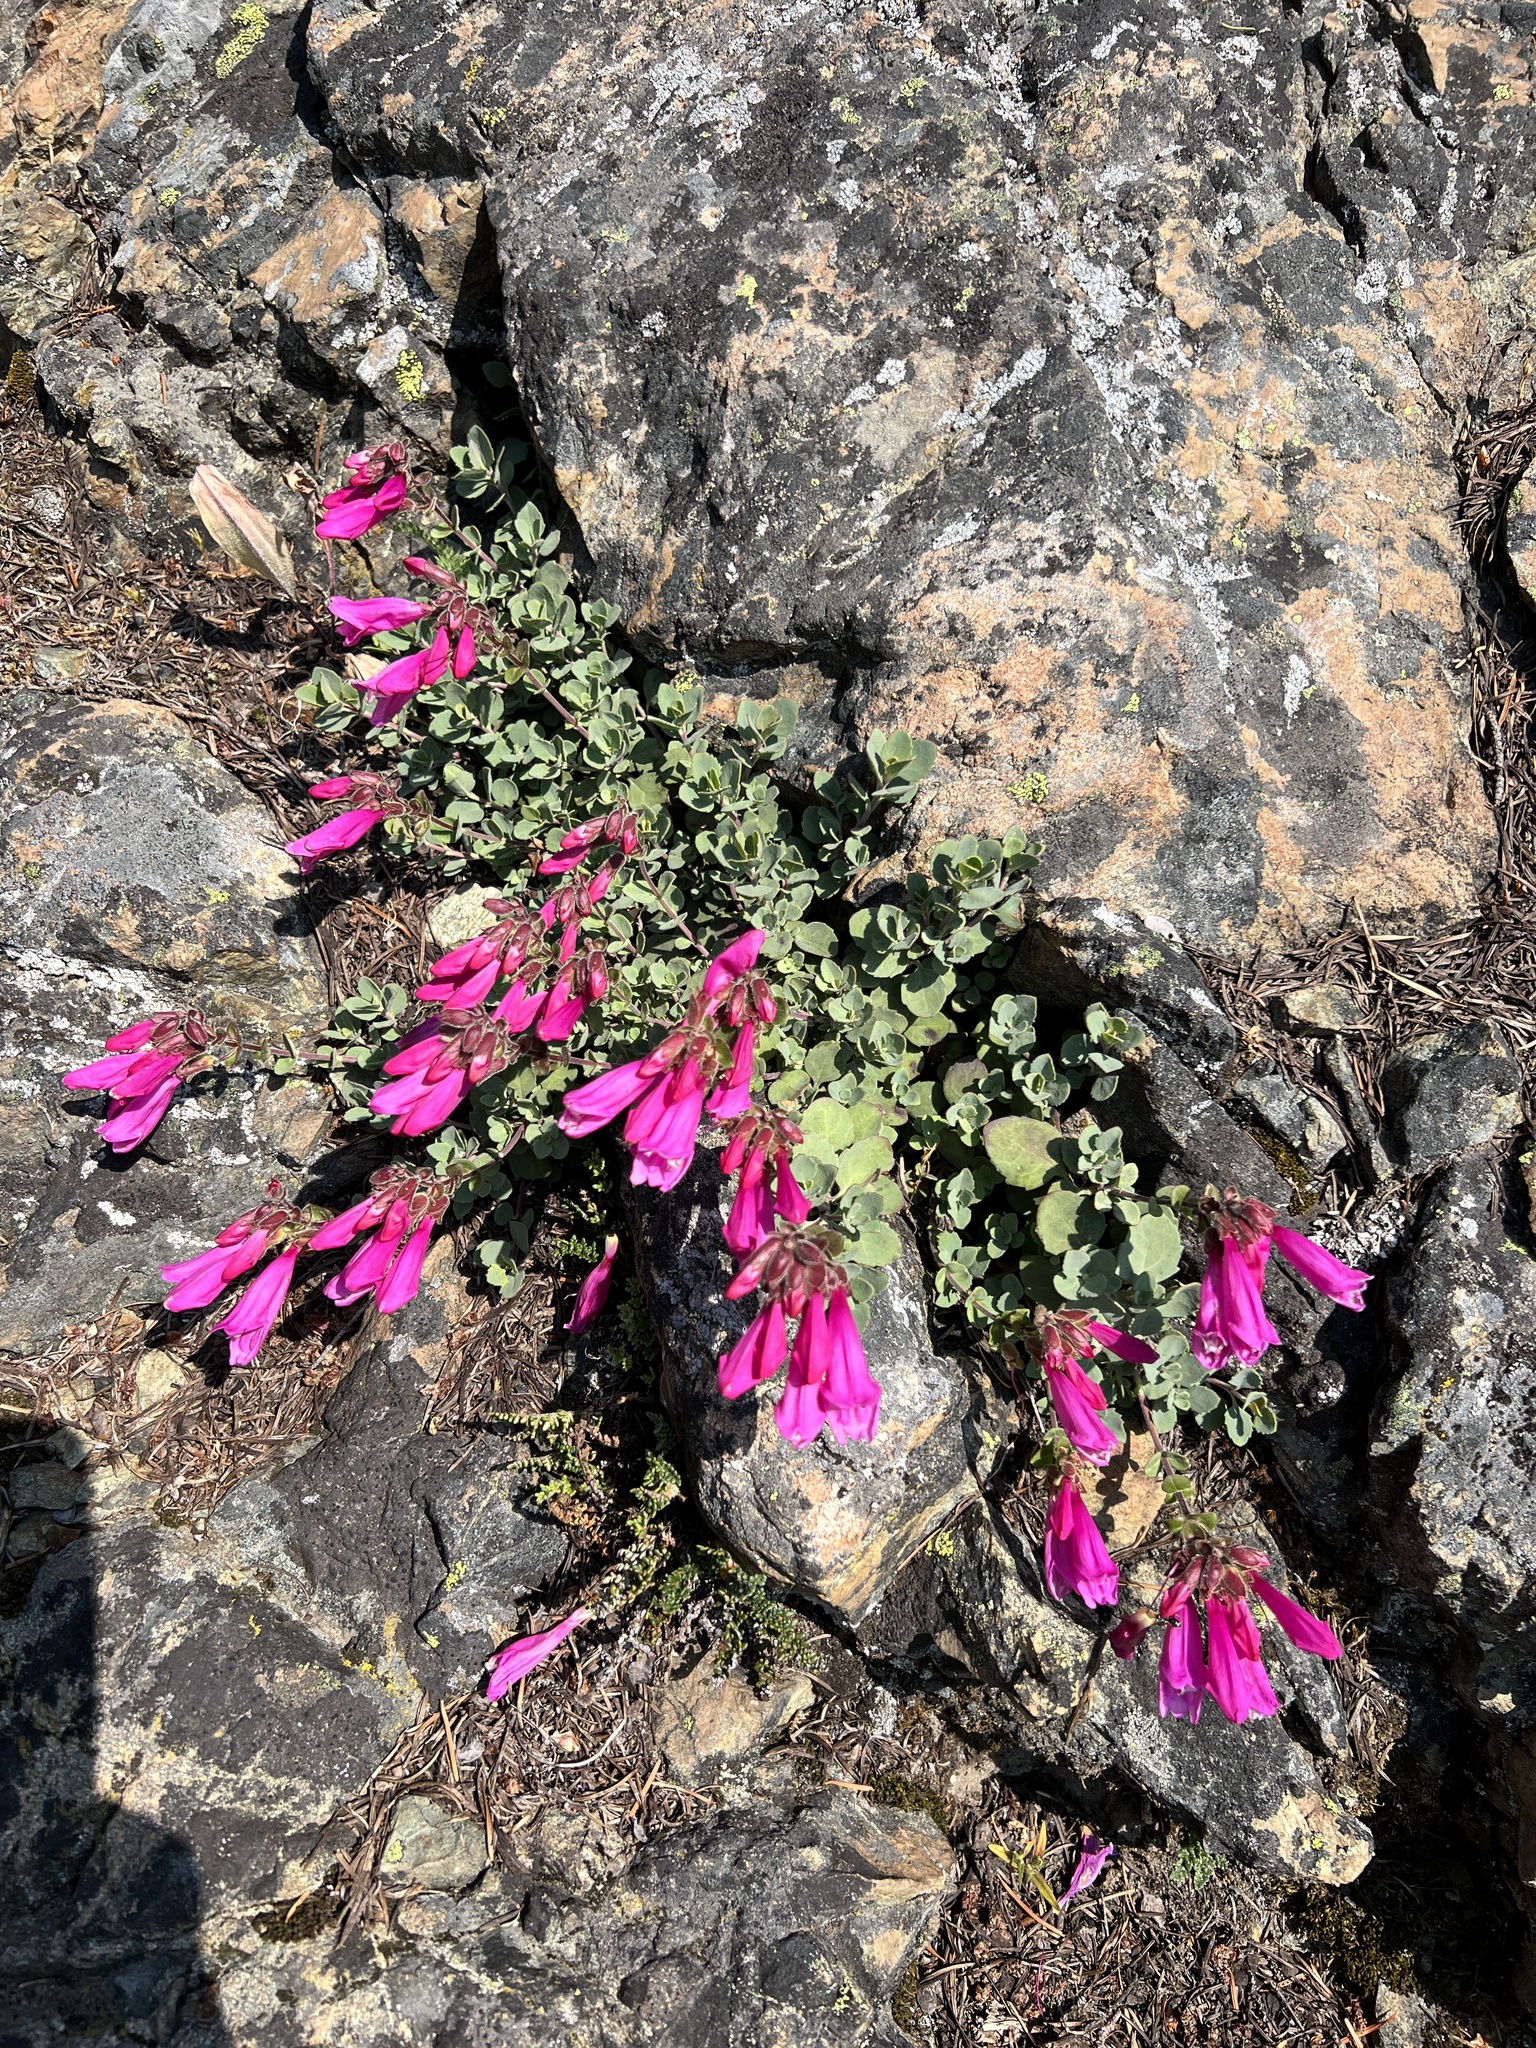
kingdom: Plantae
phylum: Tracheophyta
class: Magnoliopsida
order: Lamiales
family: Plantaginaceae
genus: Penstemon
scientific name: Penstemon rupicola
